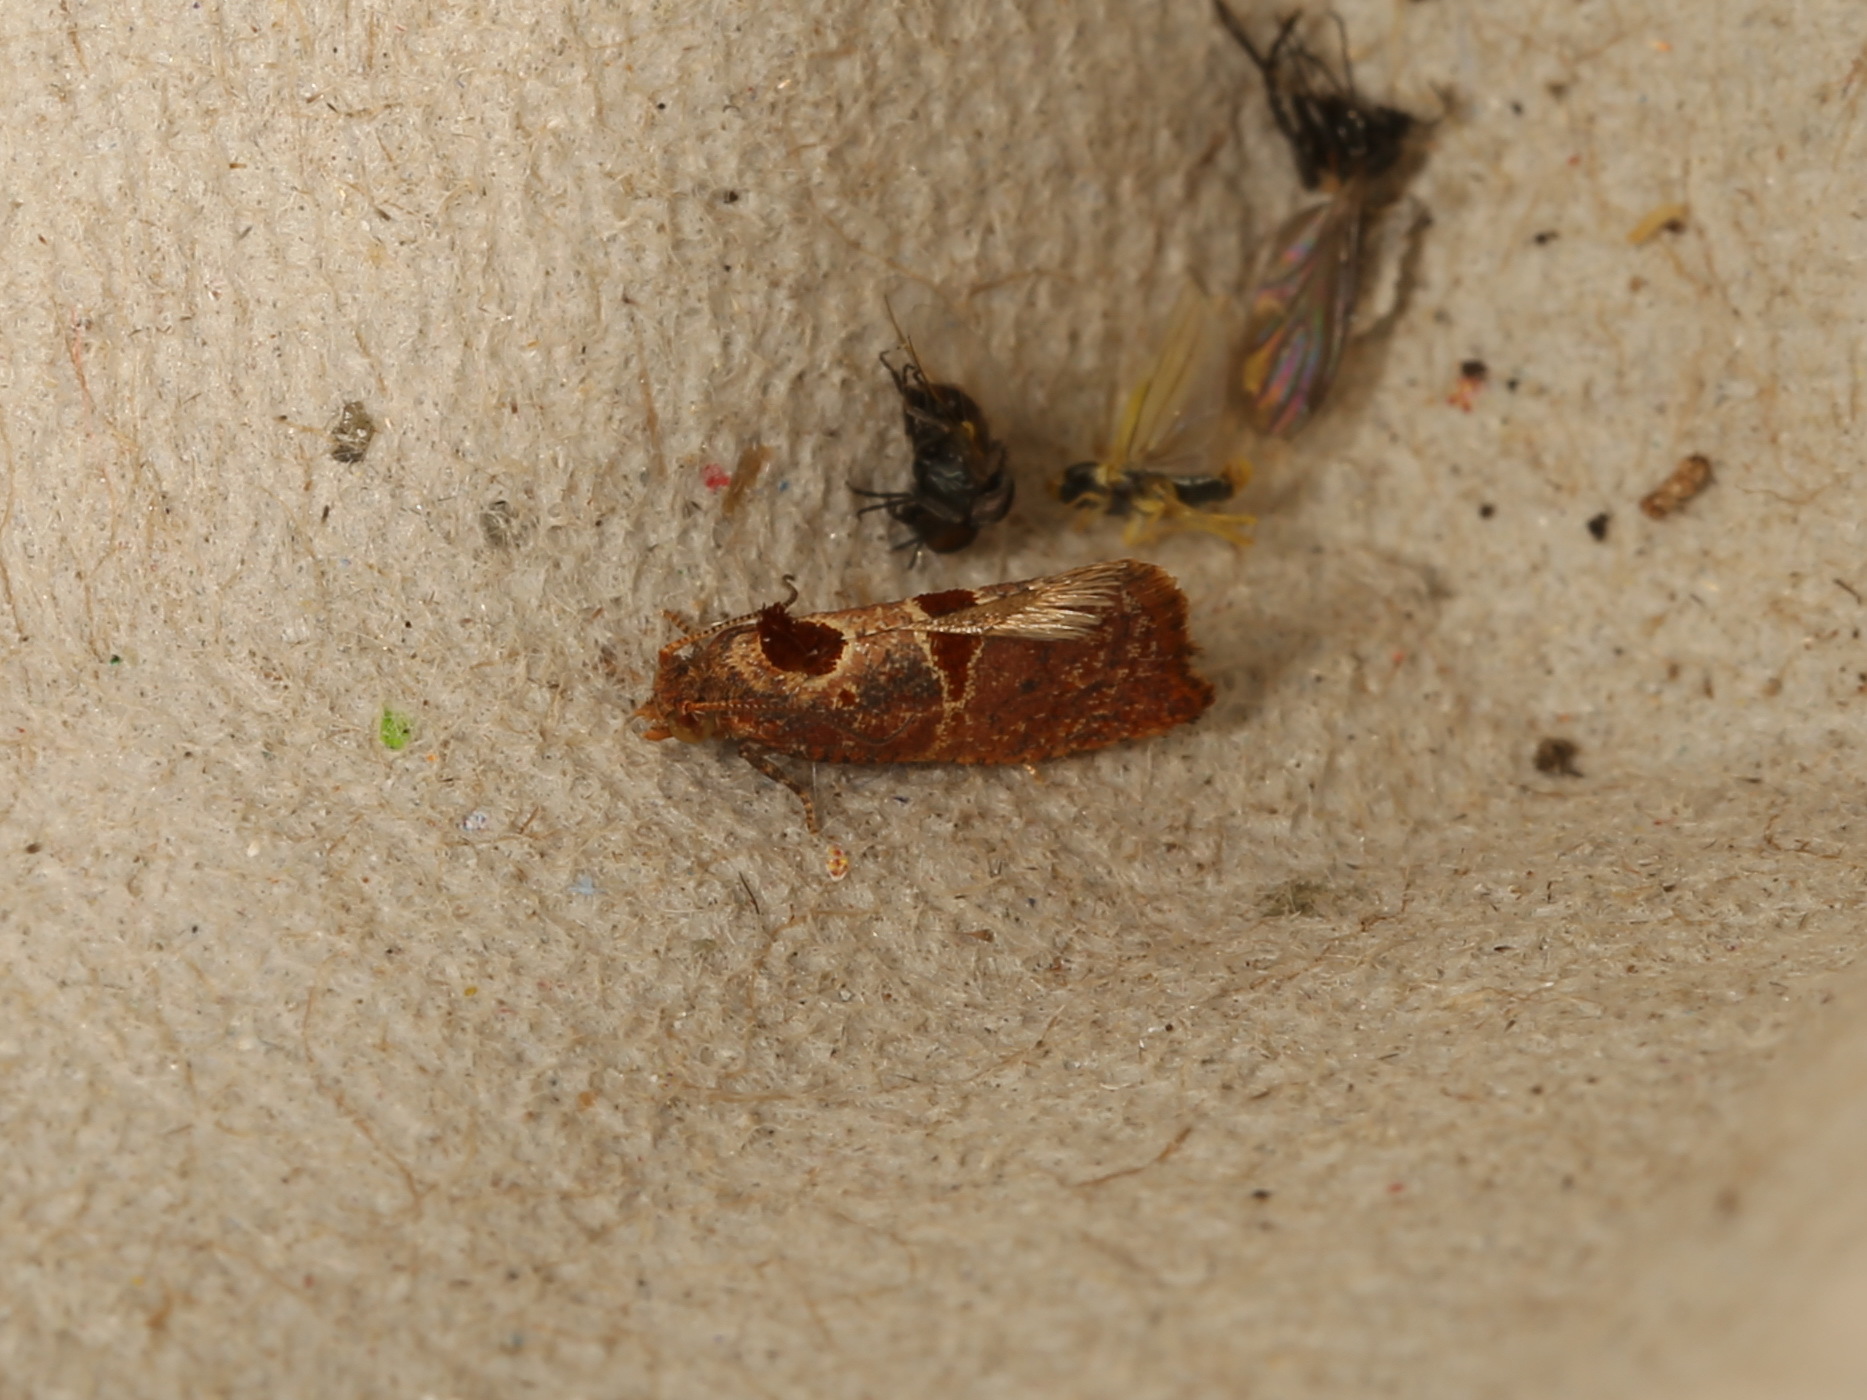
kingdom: Animalia
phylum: Arthropoda
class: Insecta
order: Lepidoptera
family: Tortricidae
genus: Glyphidoptera
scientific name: Glyphidoptera insignana
